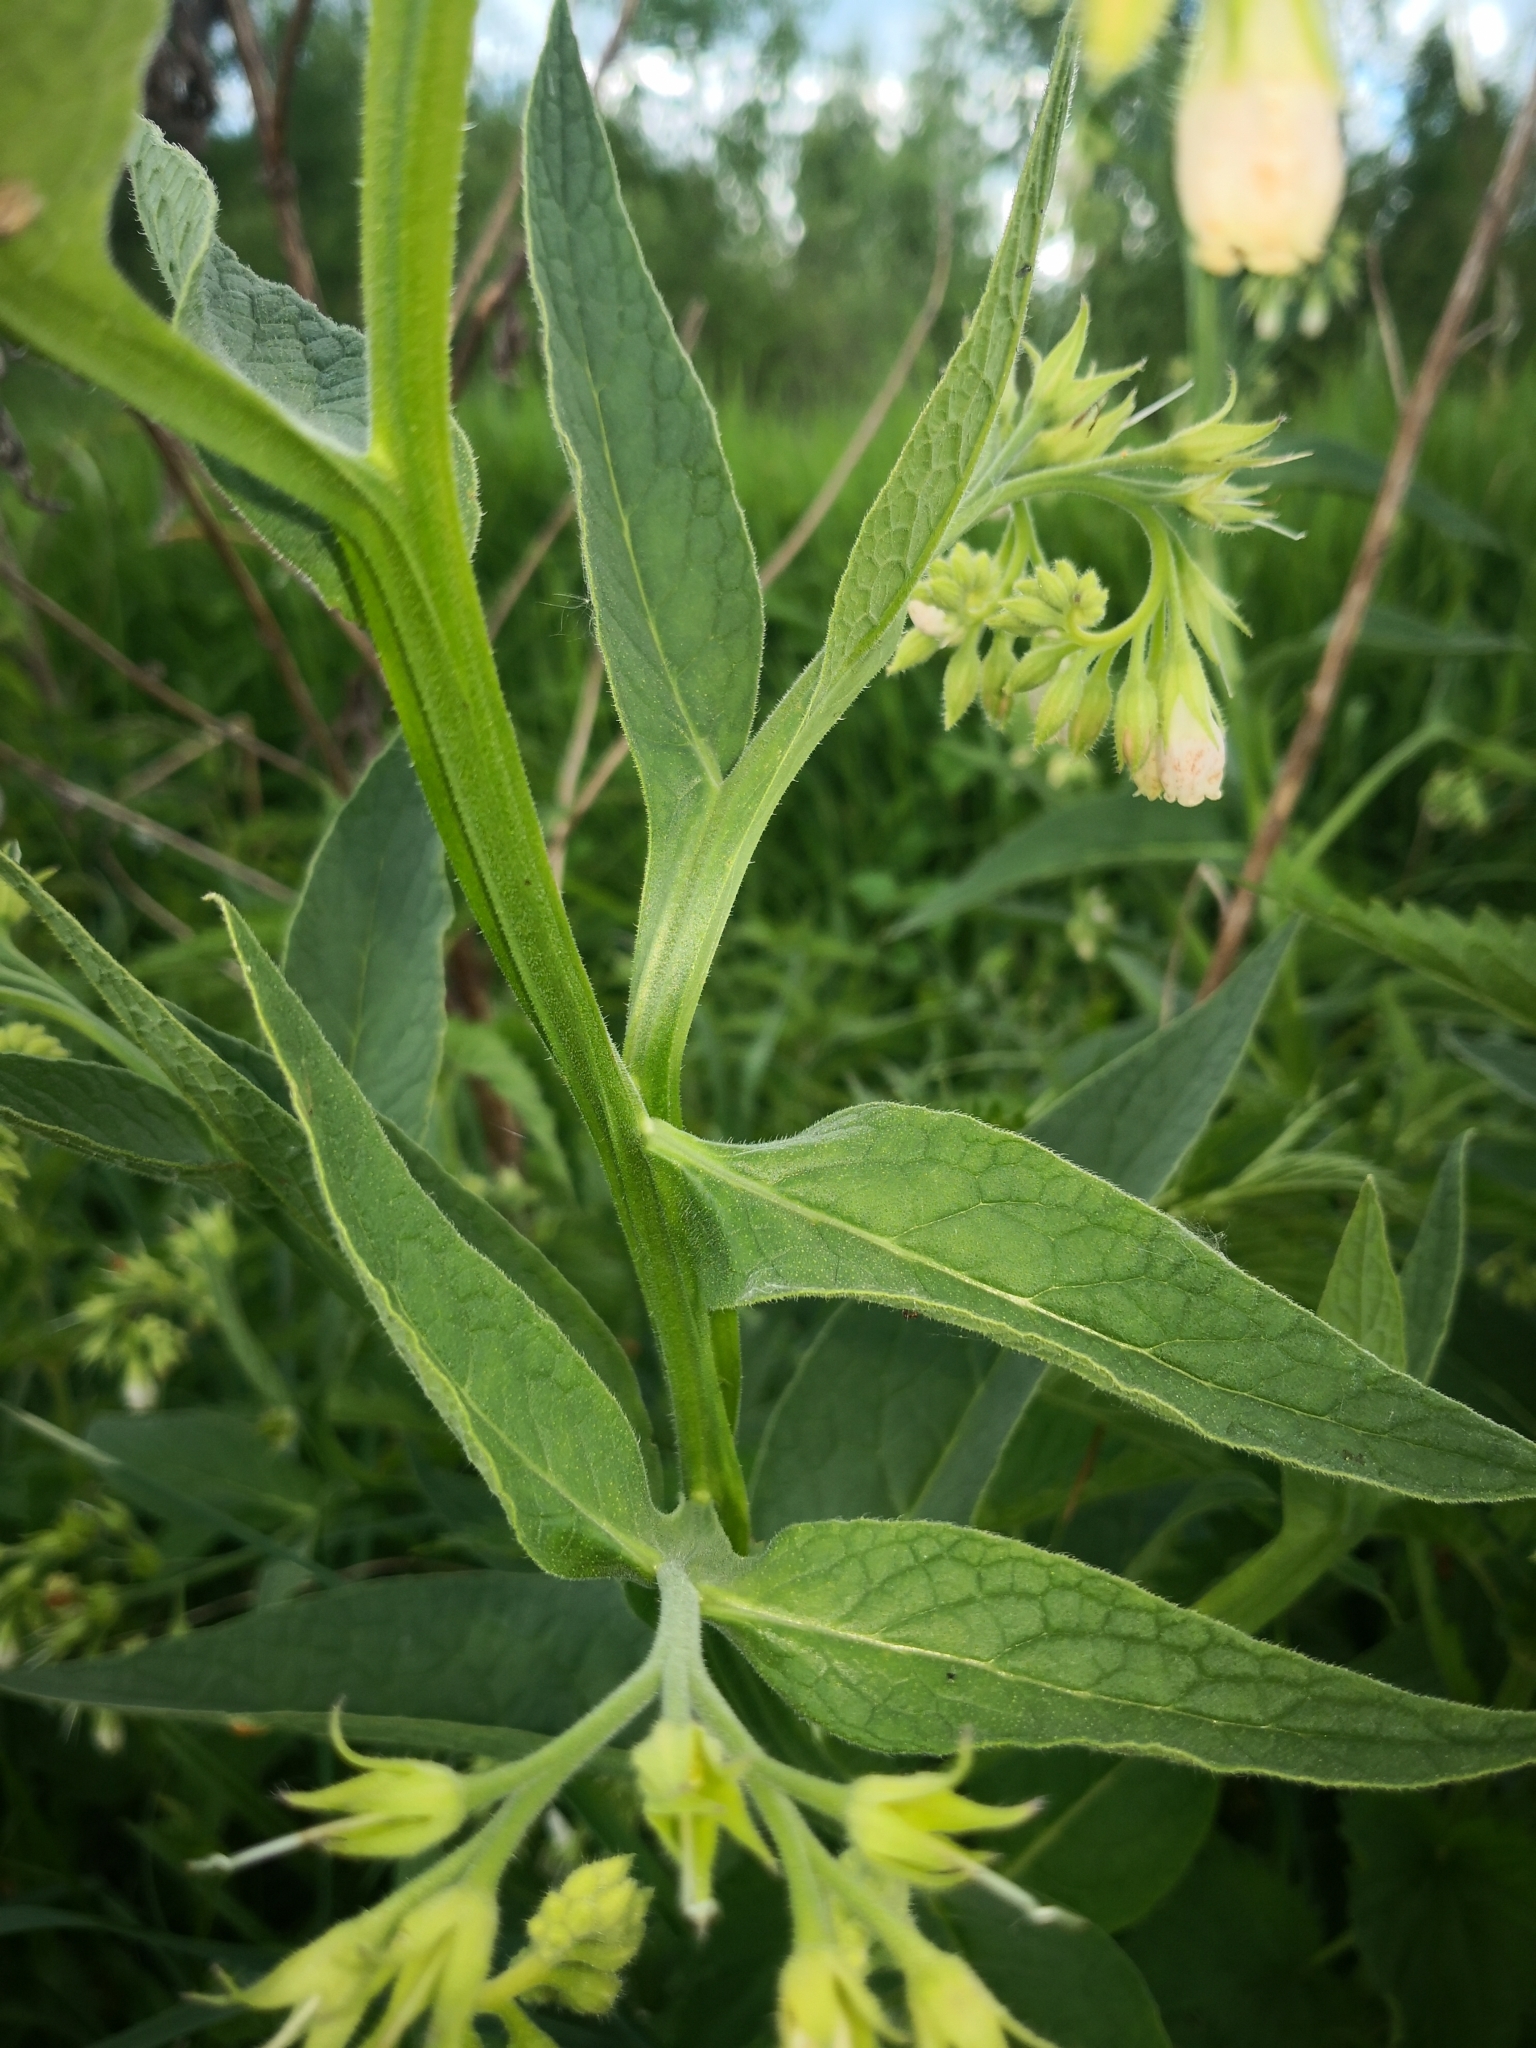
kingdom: Plantae
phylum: Tracheophyta
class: Magnoliopsida
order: Boraginales
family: Boraginaceae
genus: Symphytum
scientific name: Symphytum bohemicum
